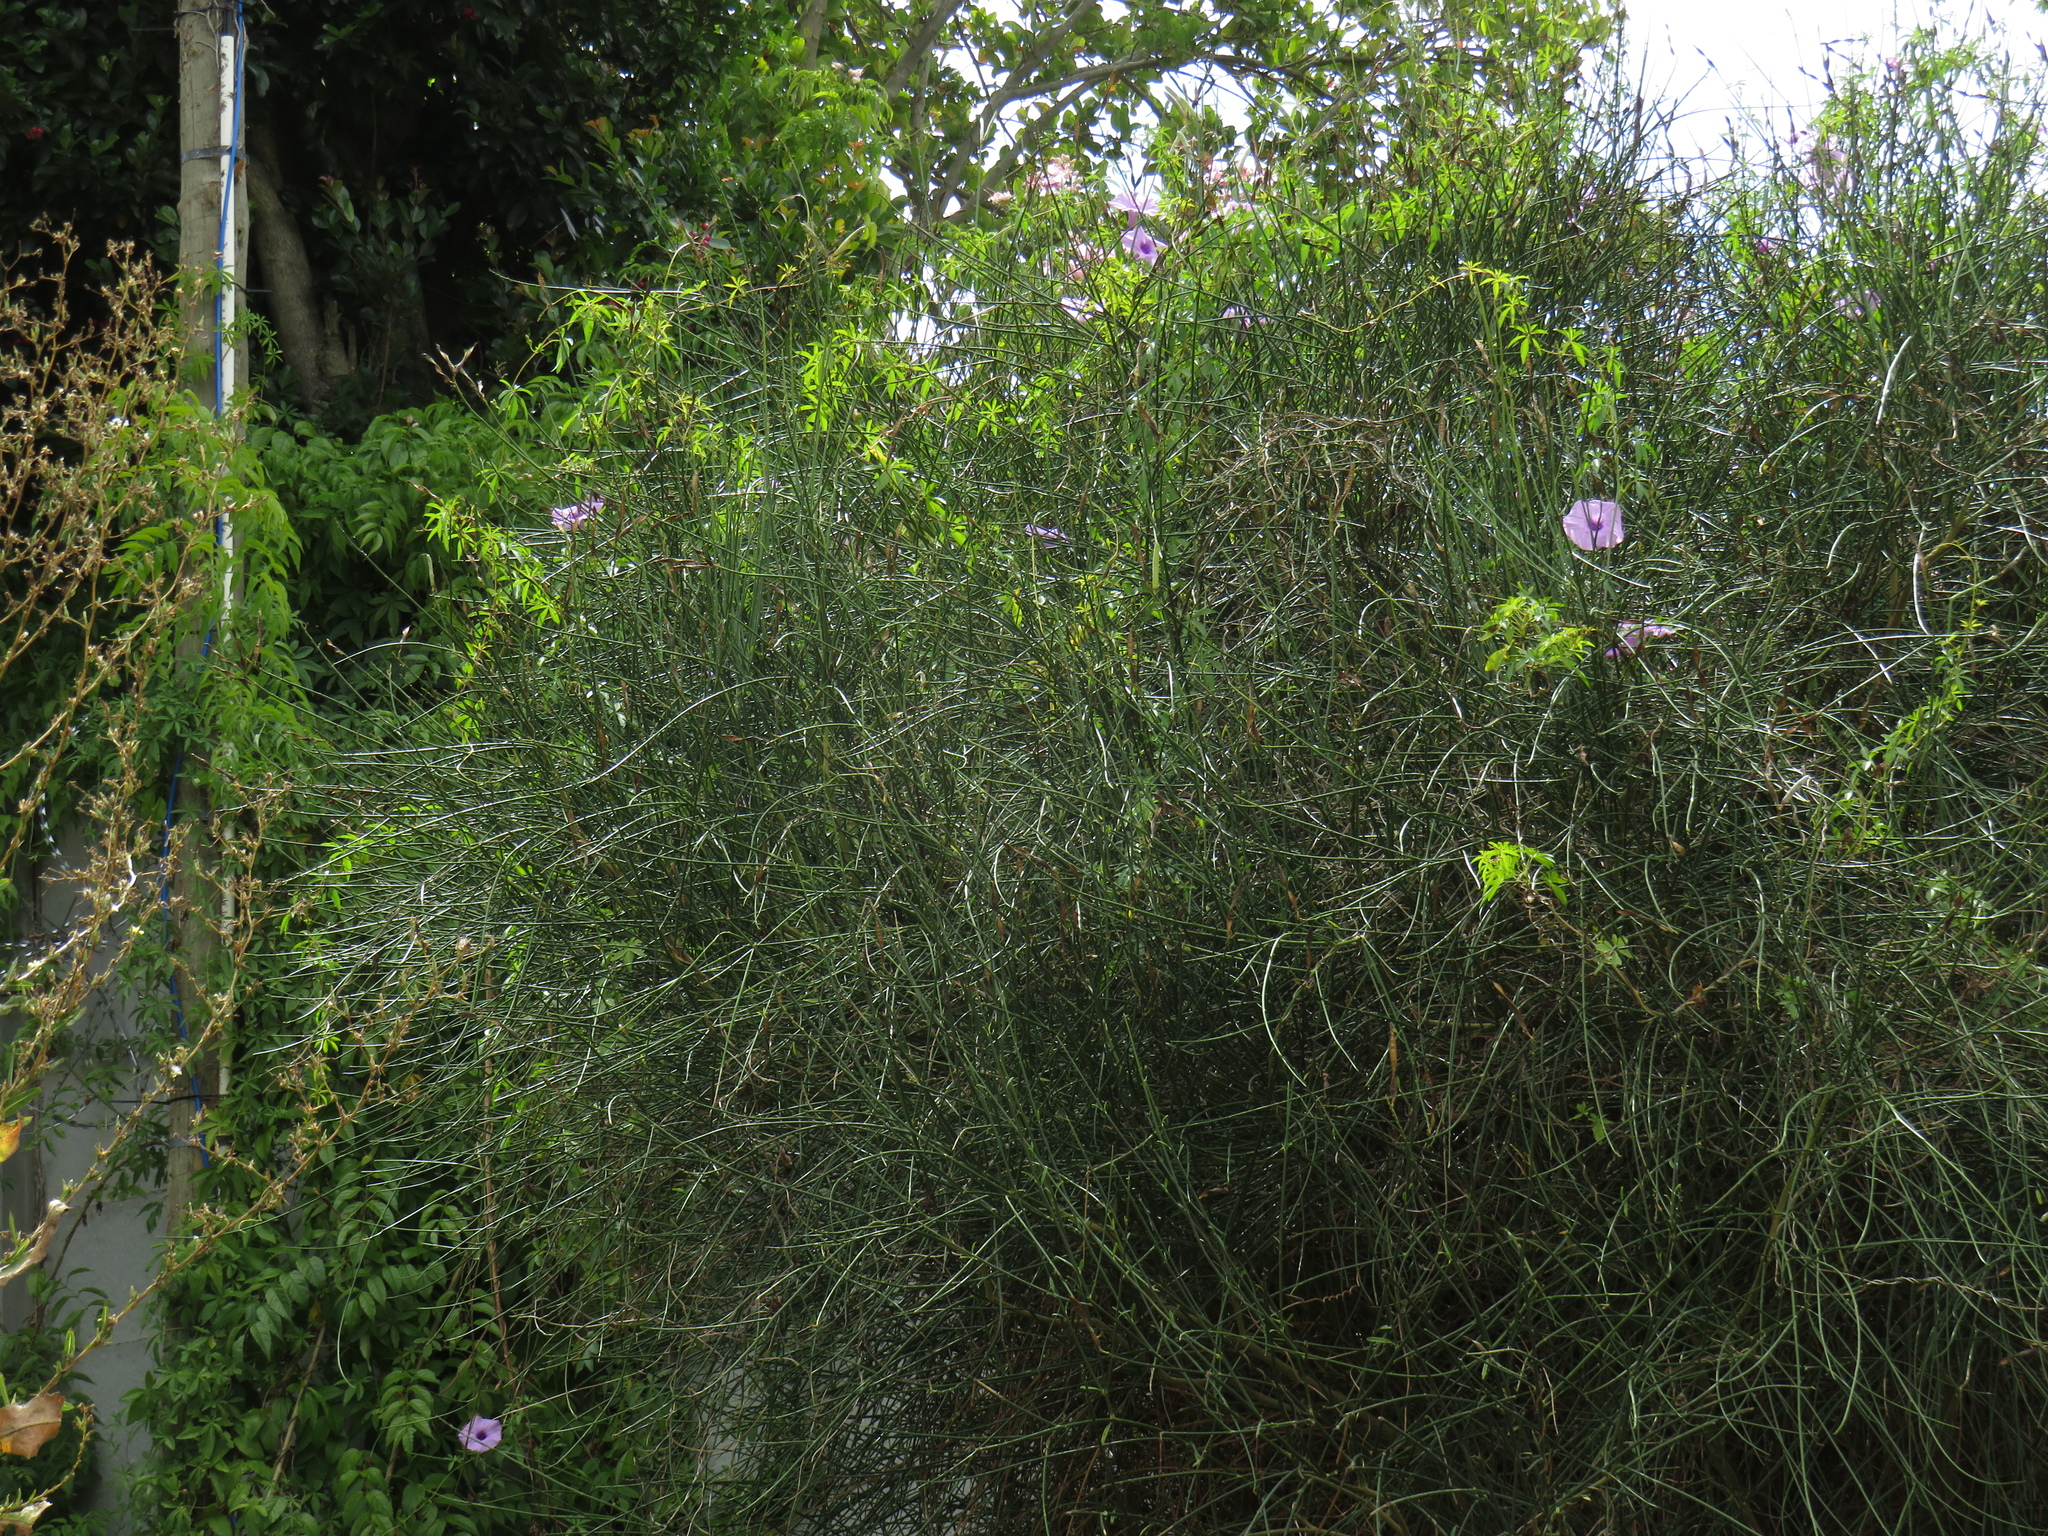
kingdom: Plantae
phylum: Tracheophyta
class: Magnoliopsida
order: Fabales
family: Fabaceae
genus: Spartium
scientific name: Spartium junceum
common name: Spanish broom
